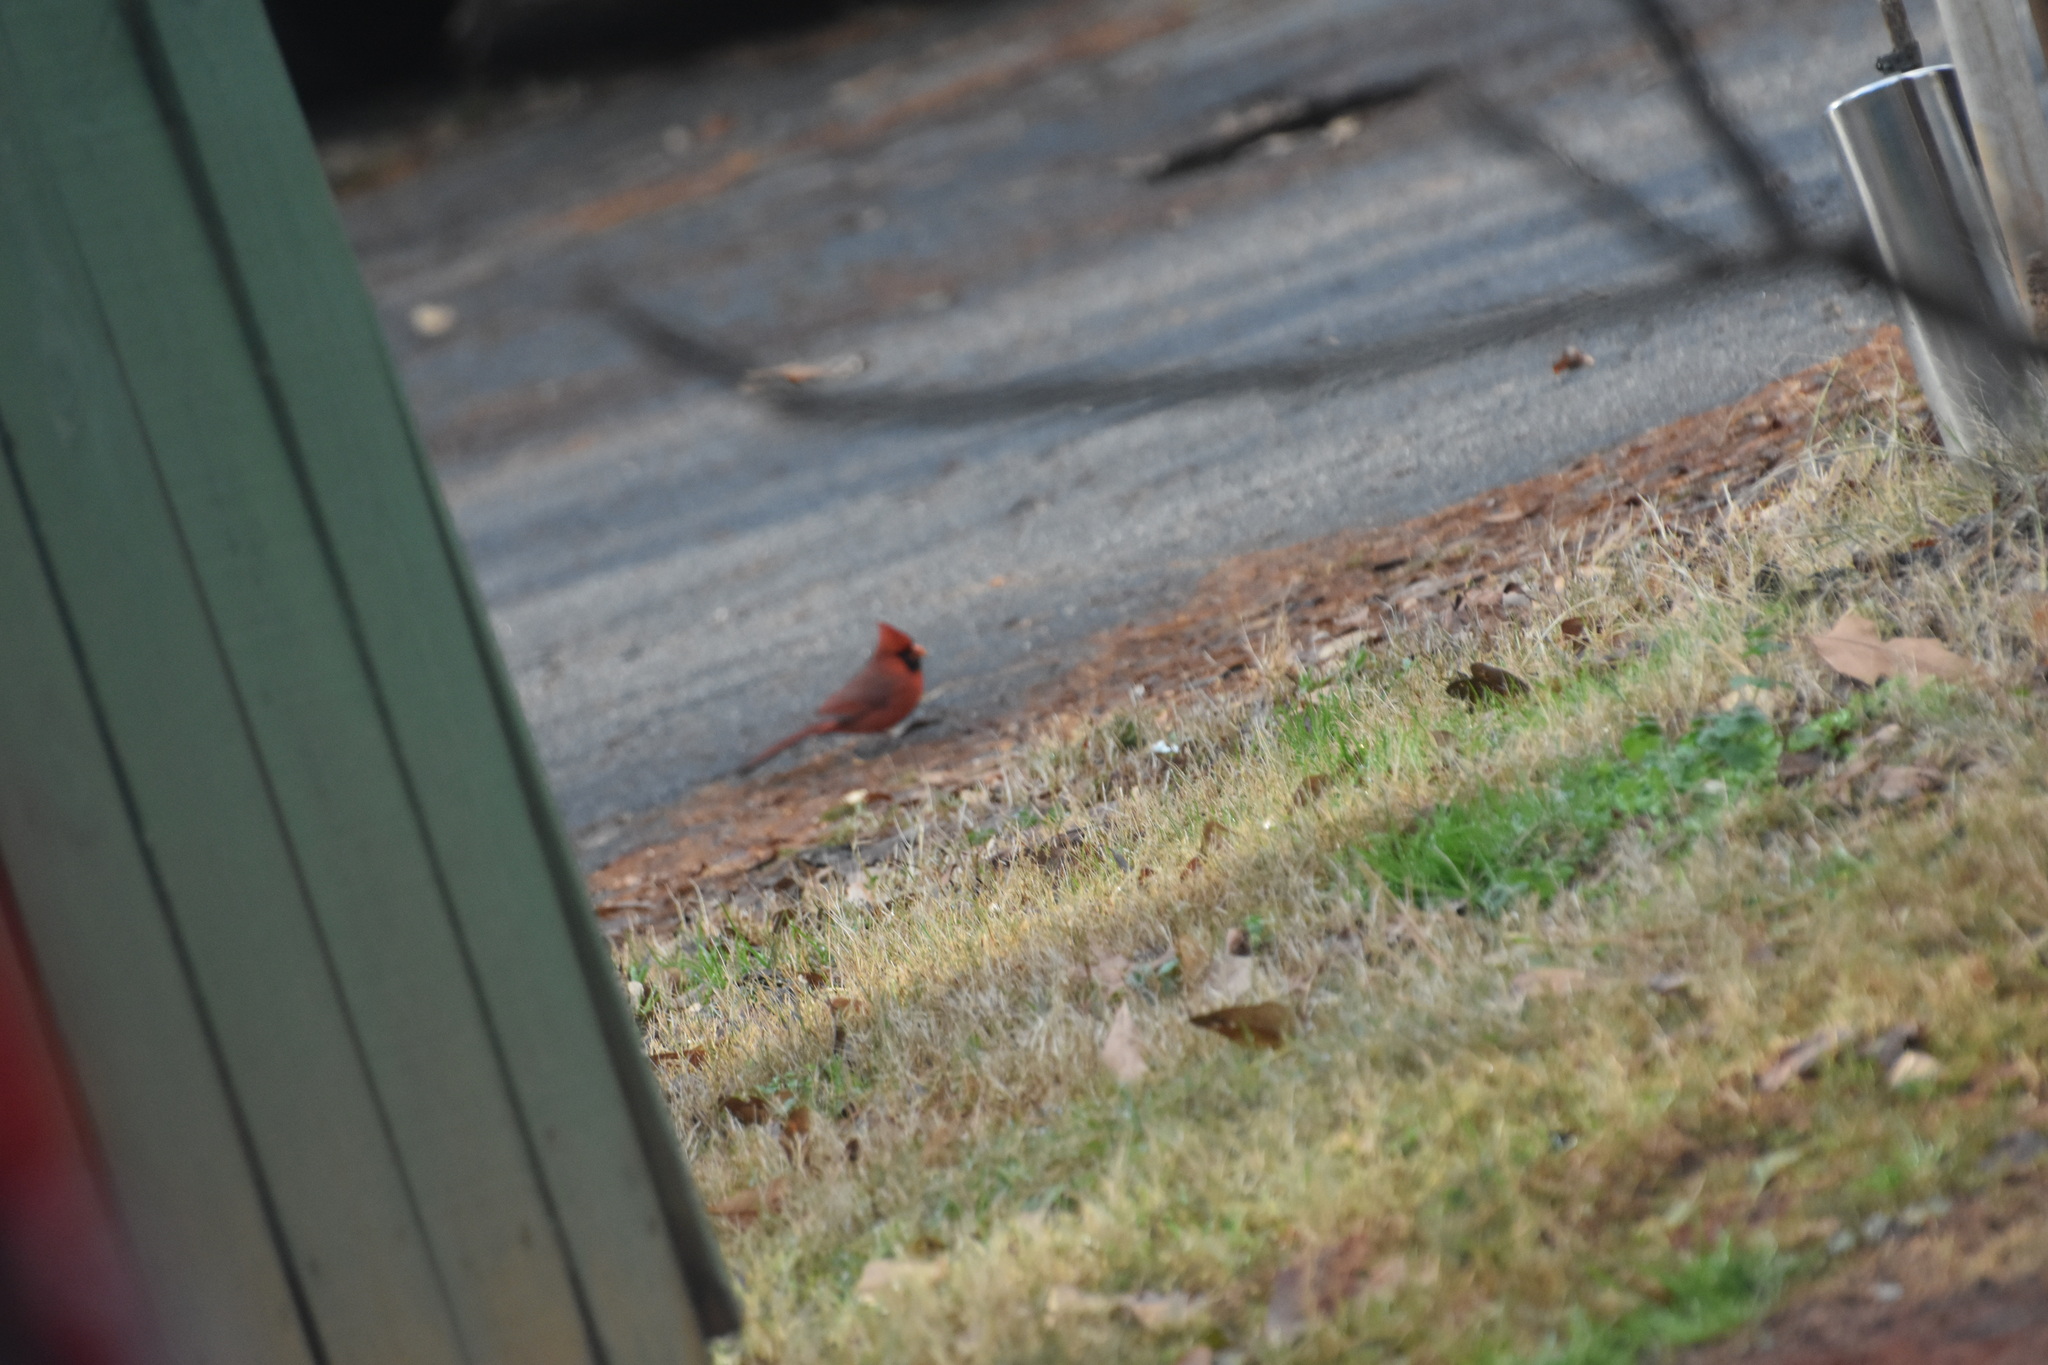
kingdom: Animalia
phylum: Chordata
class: Aves
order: Passeriformes
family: Cardinalidae
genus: Cardinalis
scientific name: Cardinalis cardinalis
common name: Northern cardinal
